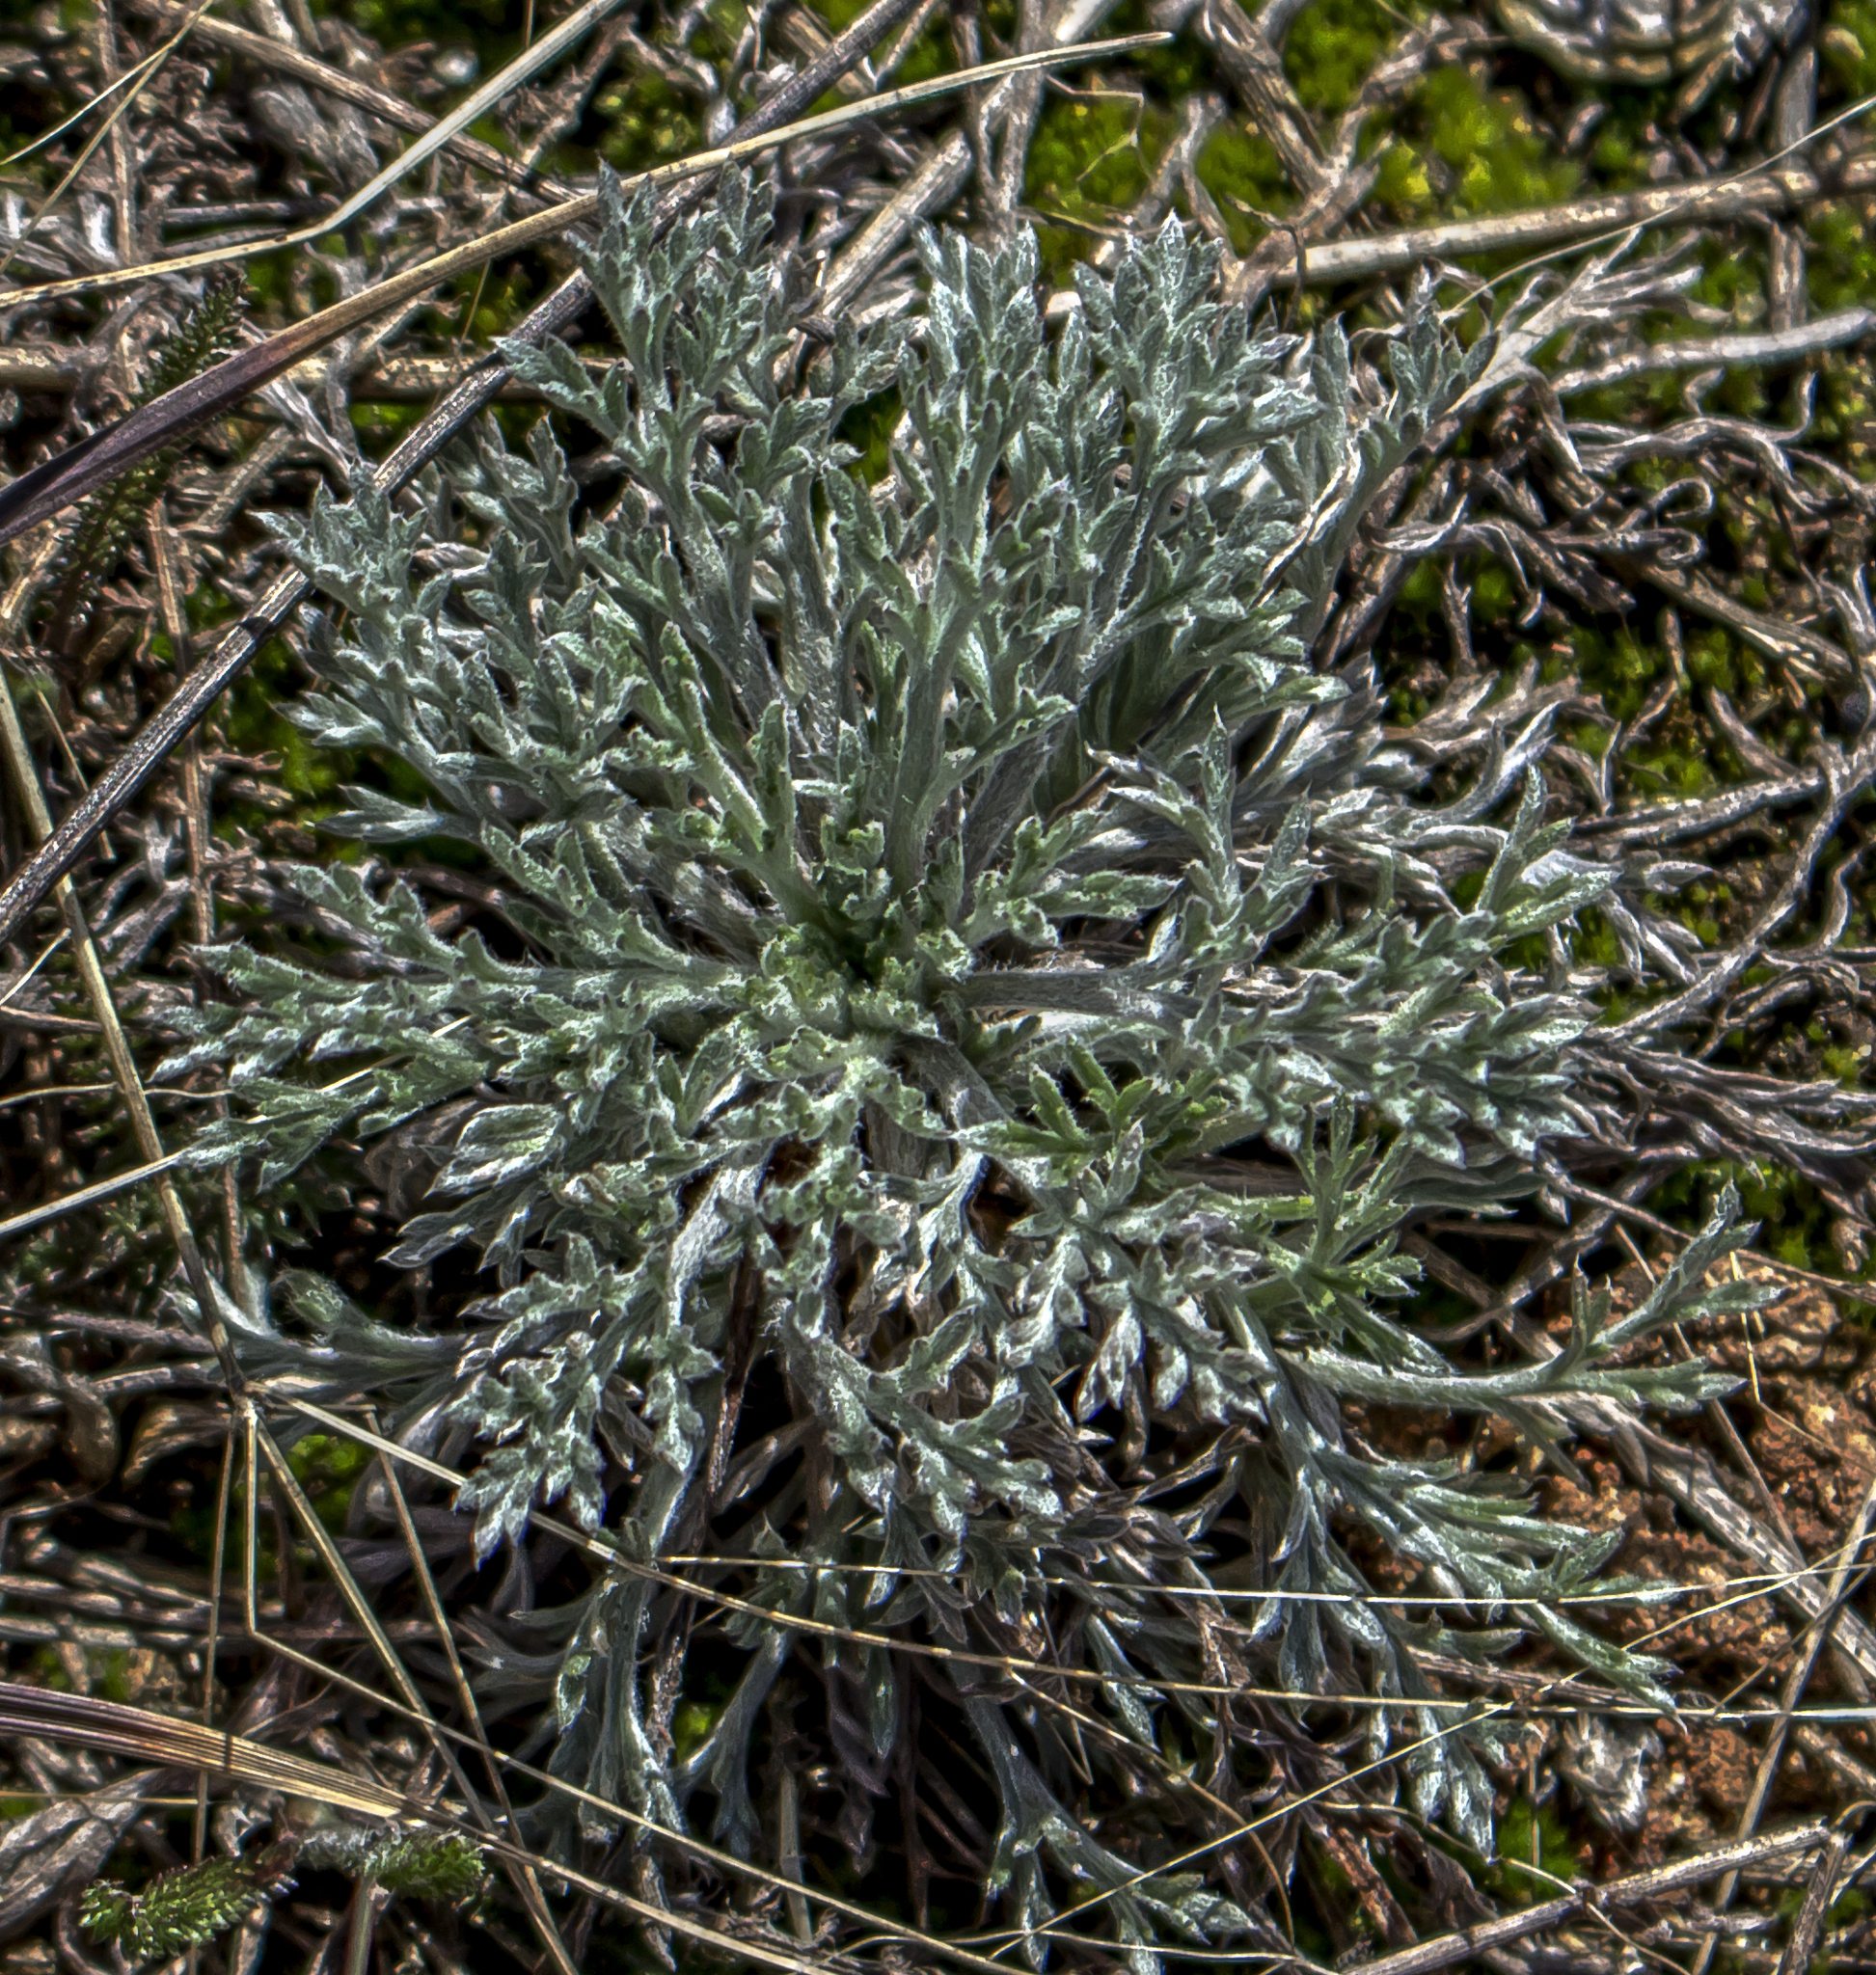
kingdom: Plantae
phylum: Tracheophyta
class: Magnoliopsida
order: Asterales
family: Asteraceae
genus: Artemisia
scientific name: Artemisia campestris
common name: Field wormwood
